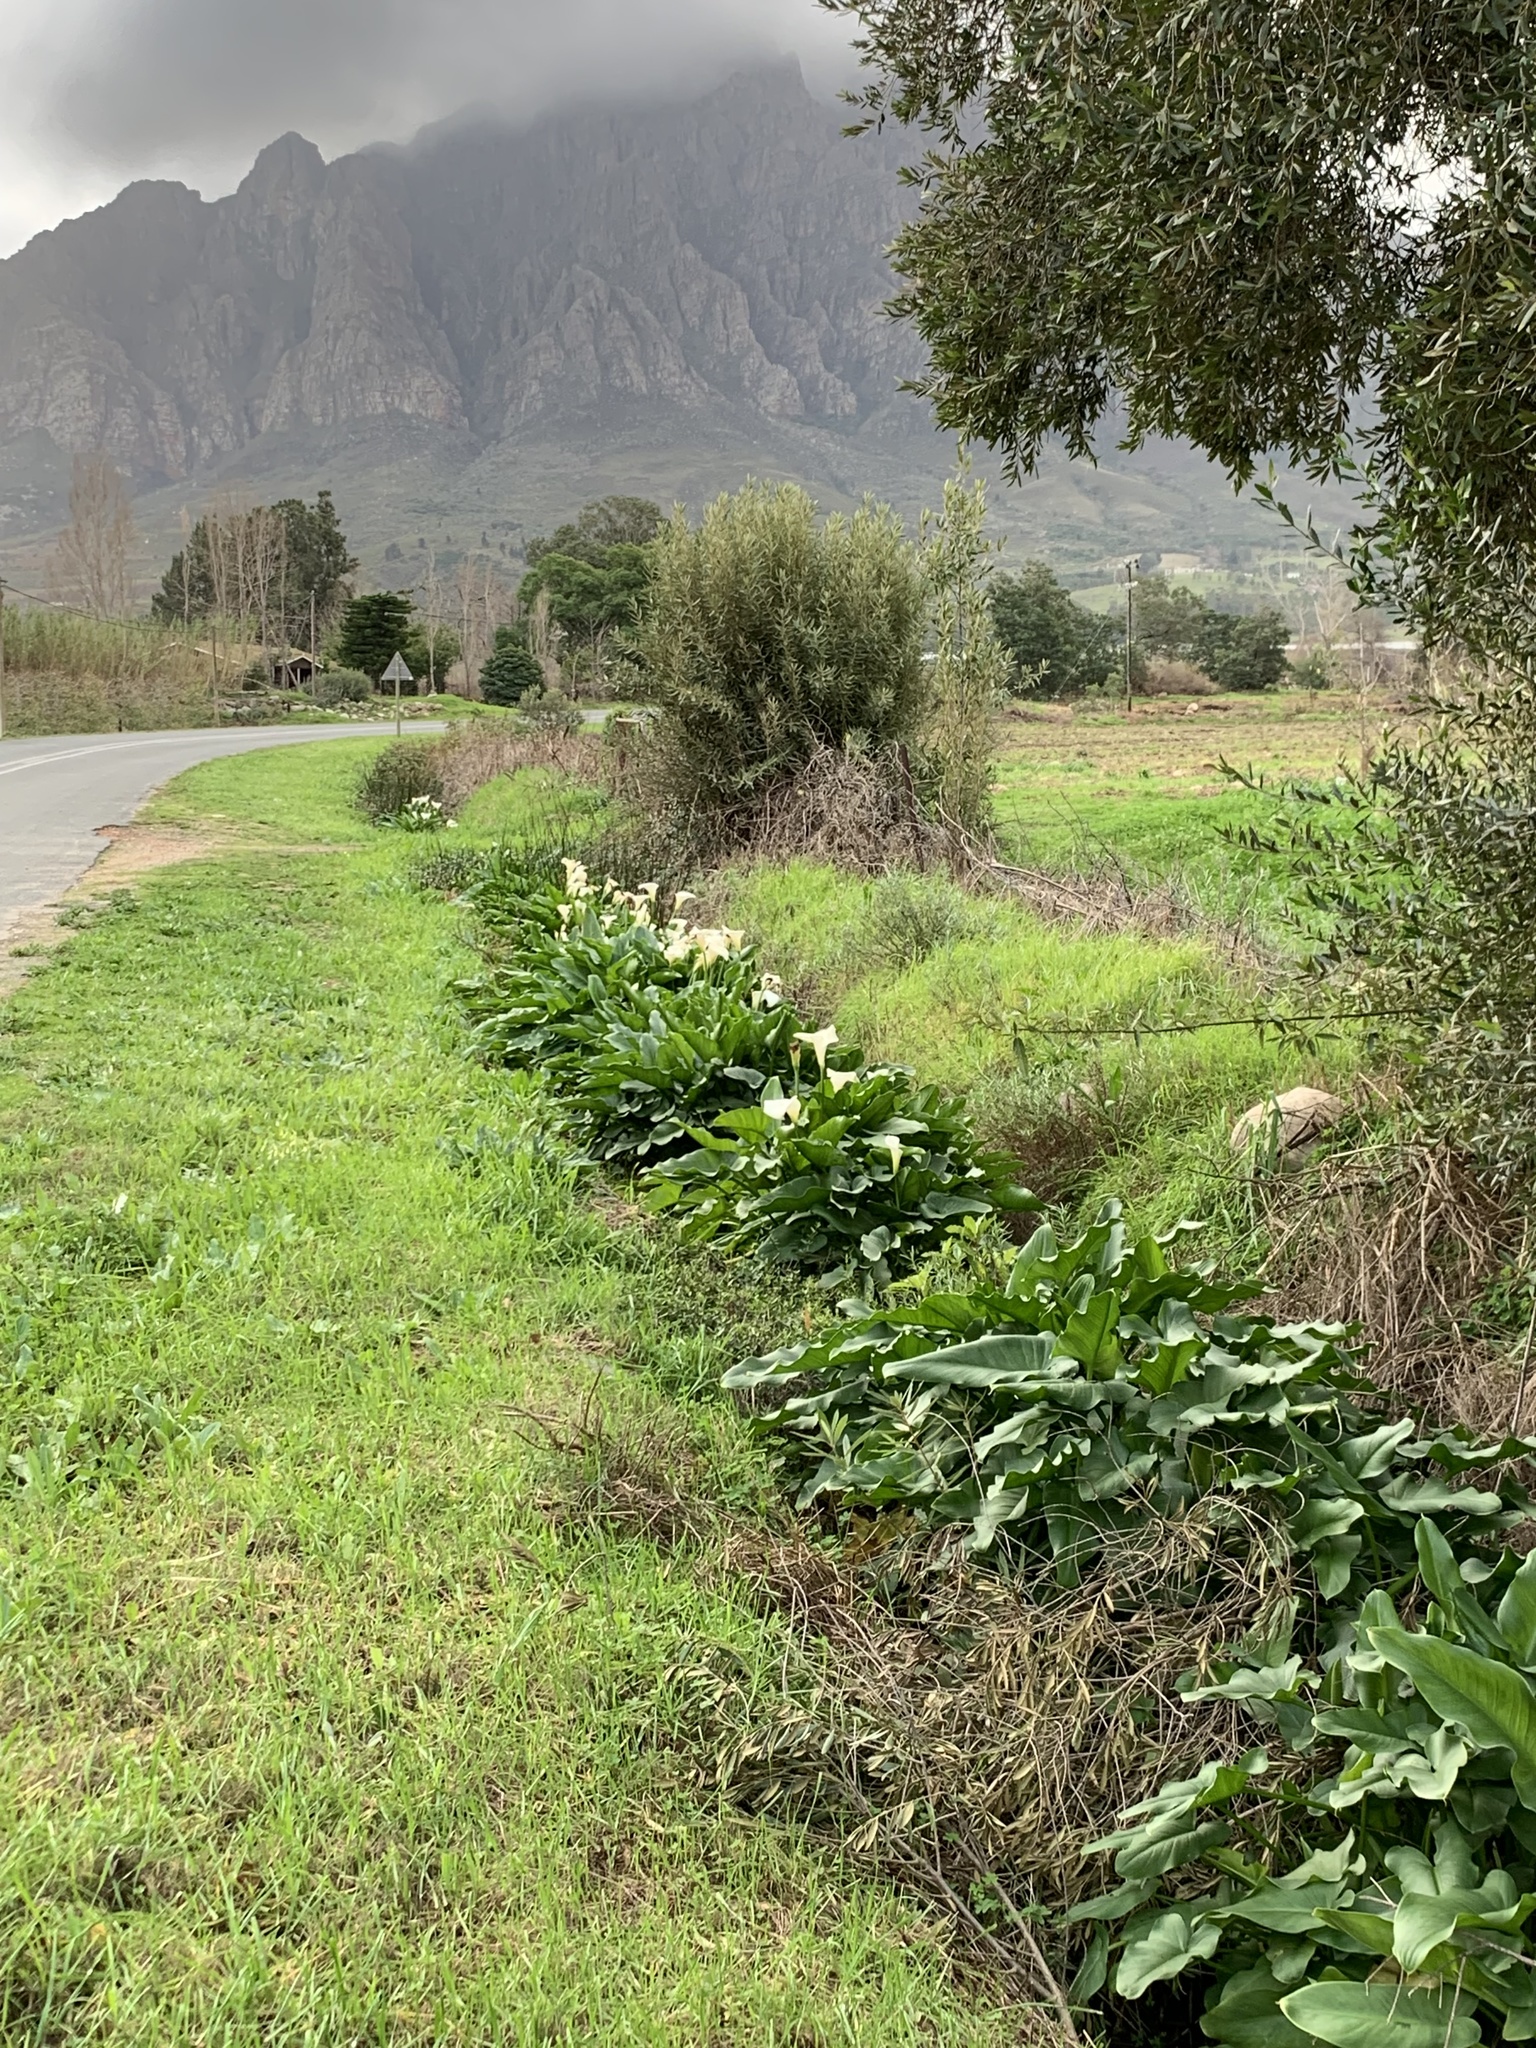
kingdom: Plantae
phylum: Tracheophyta
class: Liliopsida
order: Alismatales
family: Araceae
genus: Zantedeschia
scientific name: Zantedeschia aethiopica
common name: Altar-lily
